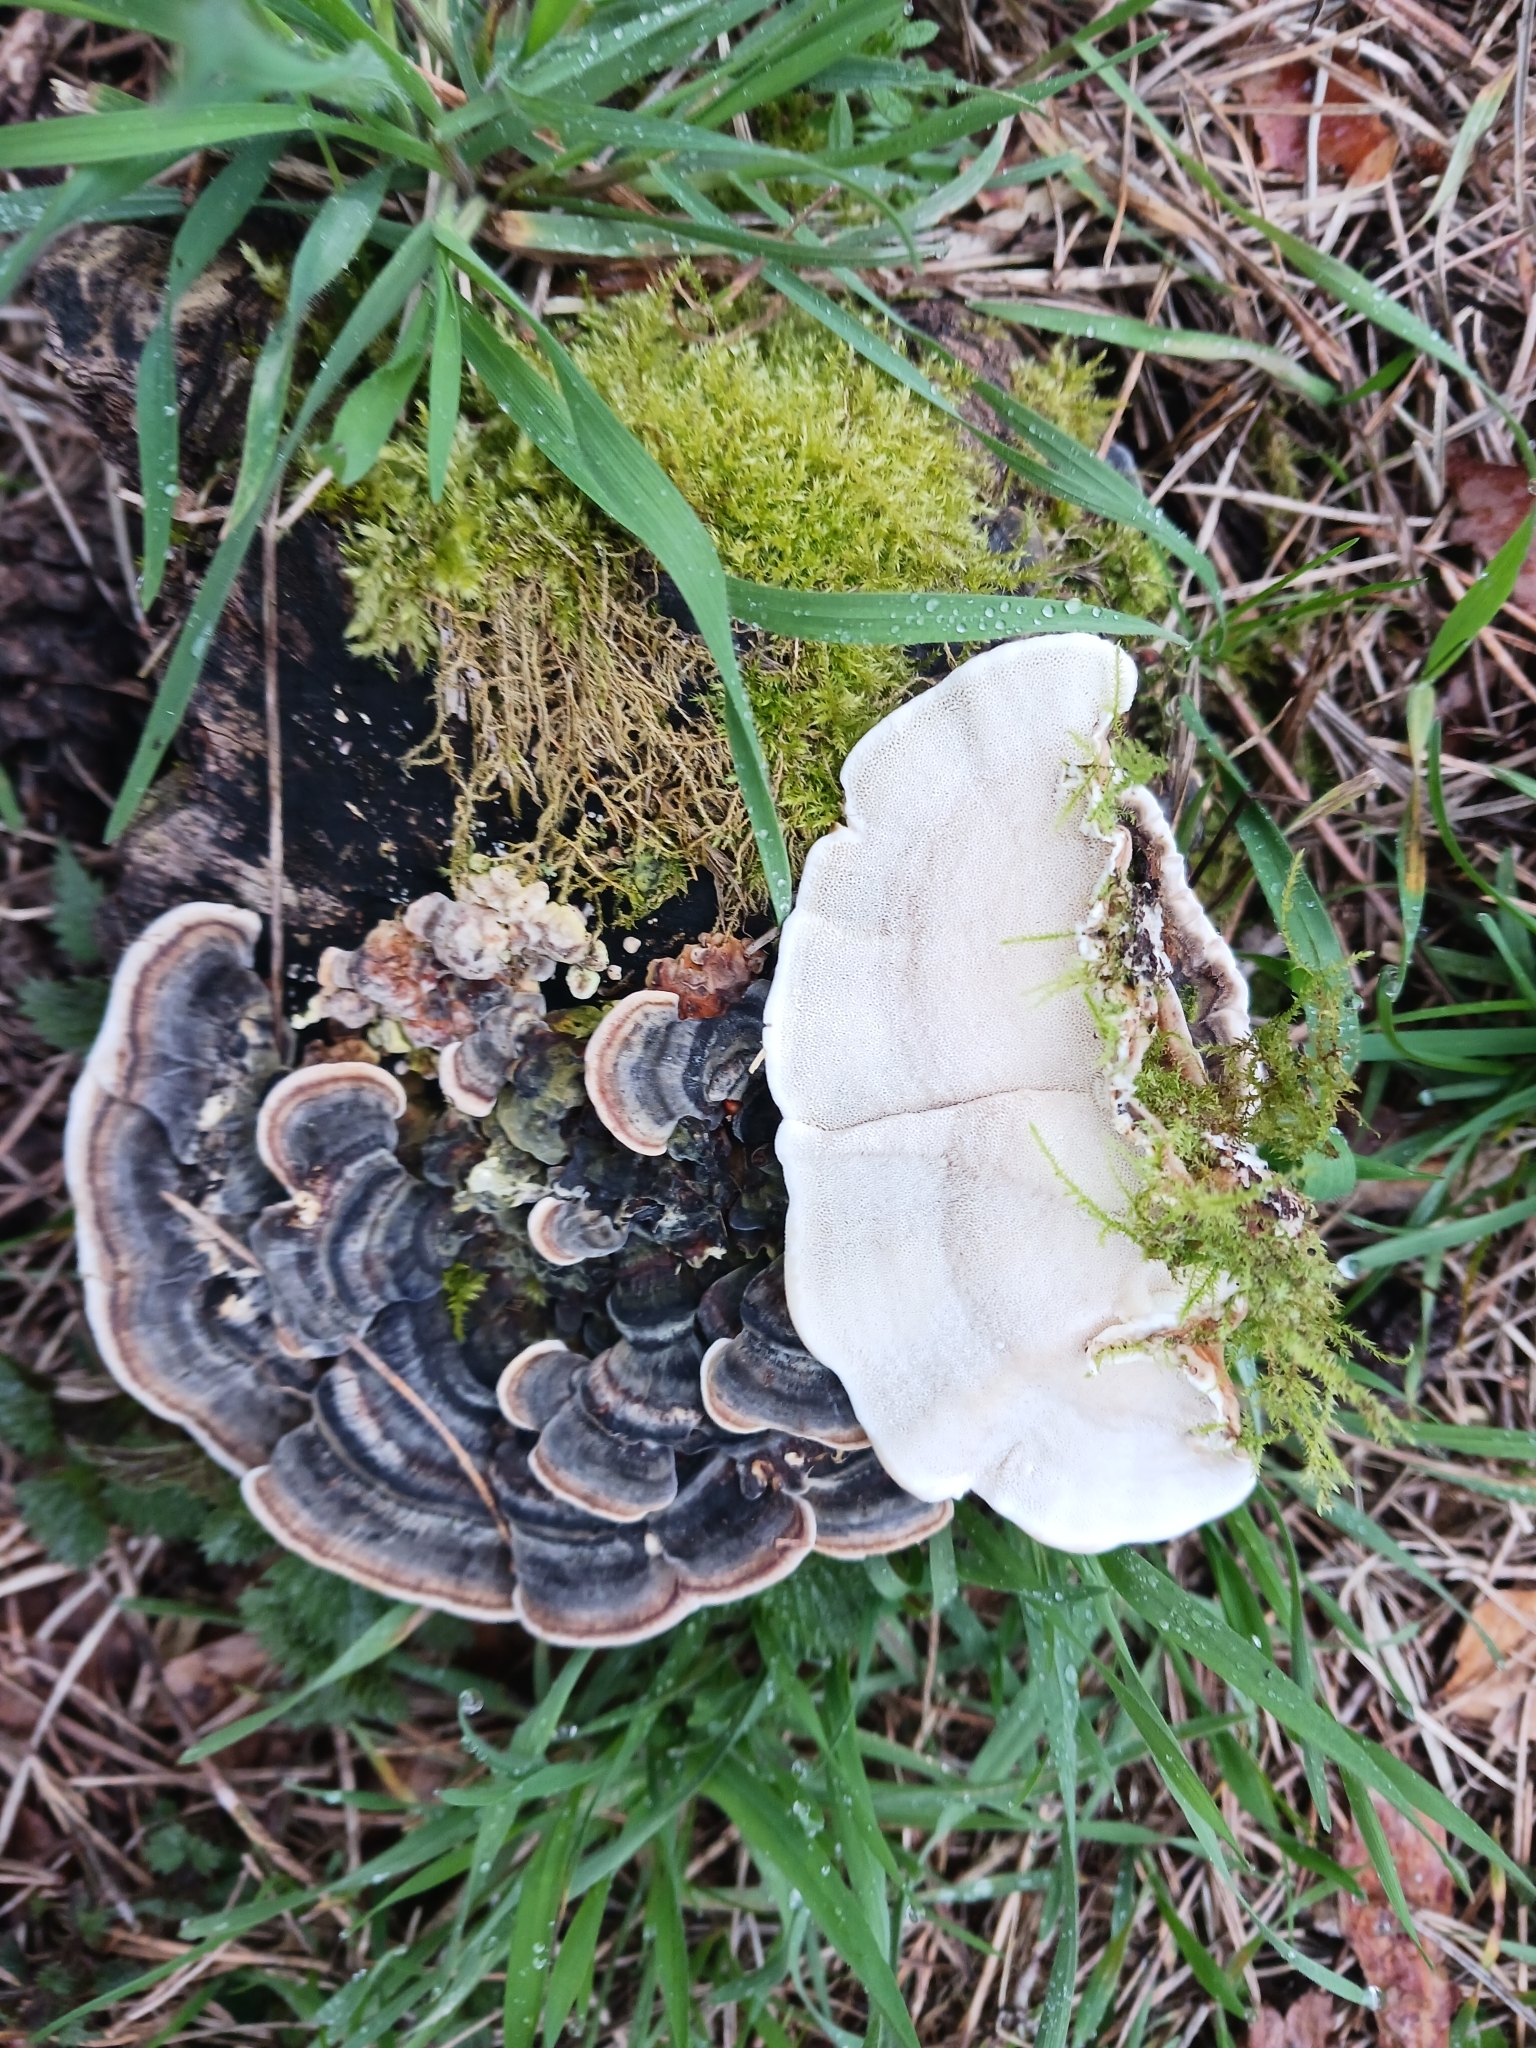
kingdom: Fungi
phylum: Basidiomycota
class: Agaricomycetes
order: Polyporales
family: Polyporaceae
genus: Trametes
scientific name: Trametes versicolor
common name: Turkeytail
